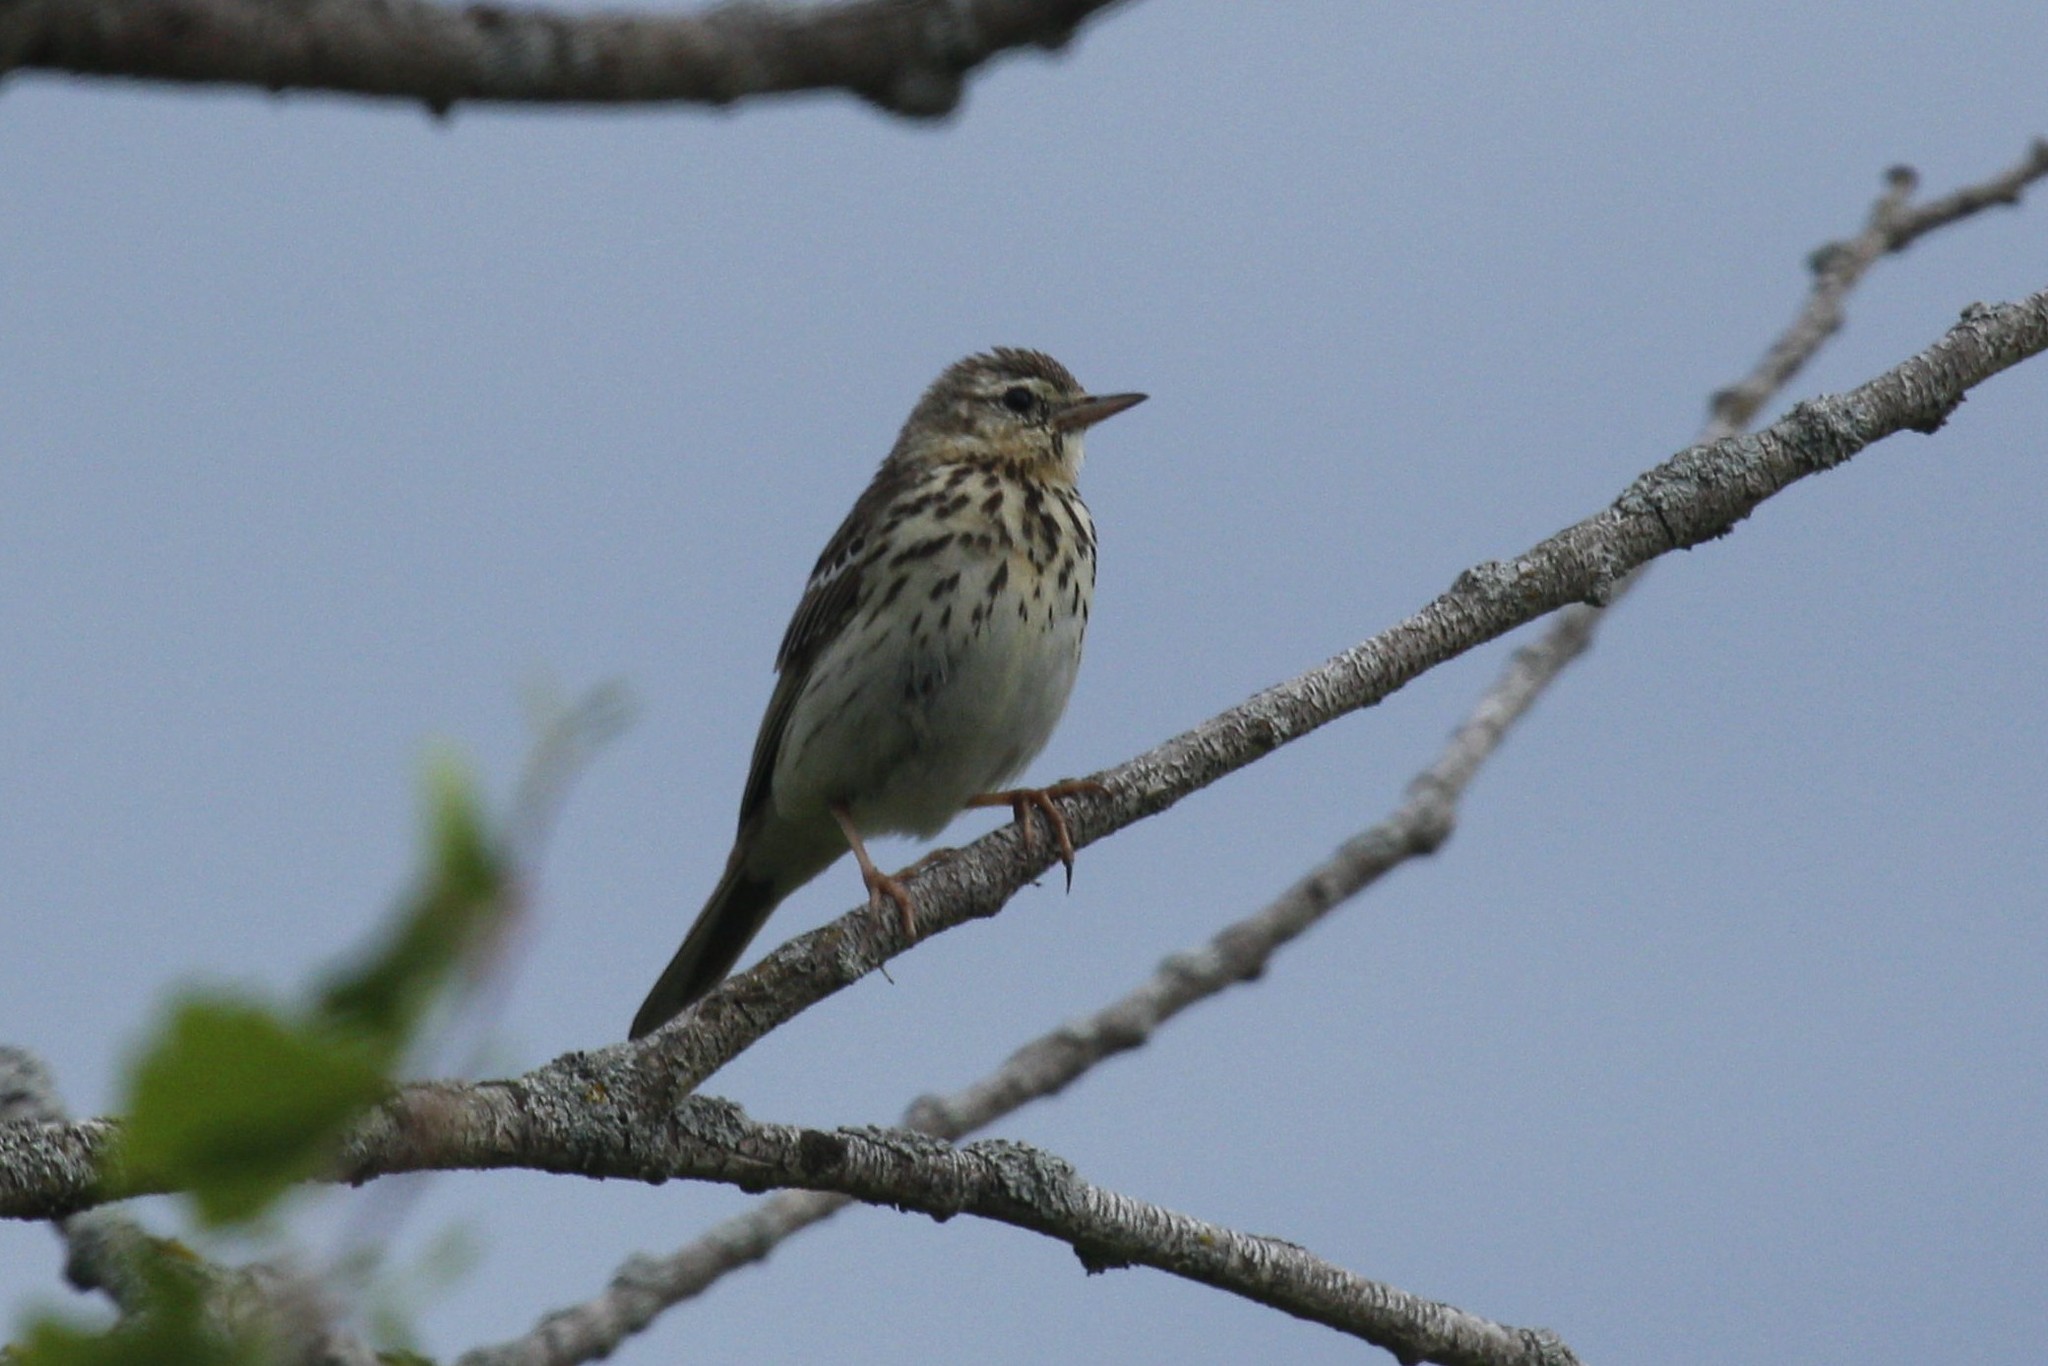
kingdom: Animalia
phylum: Chordata
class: Aves
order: Passeriformes
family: Motacillidae
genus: Anthus
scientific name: Anthus hodgsoni
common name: Olive-backed pipit
